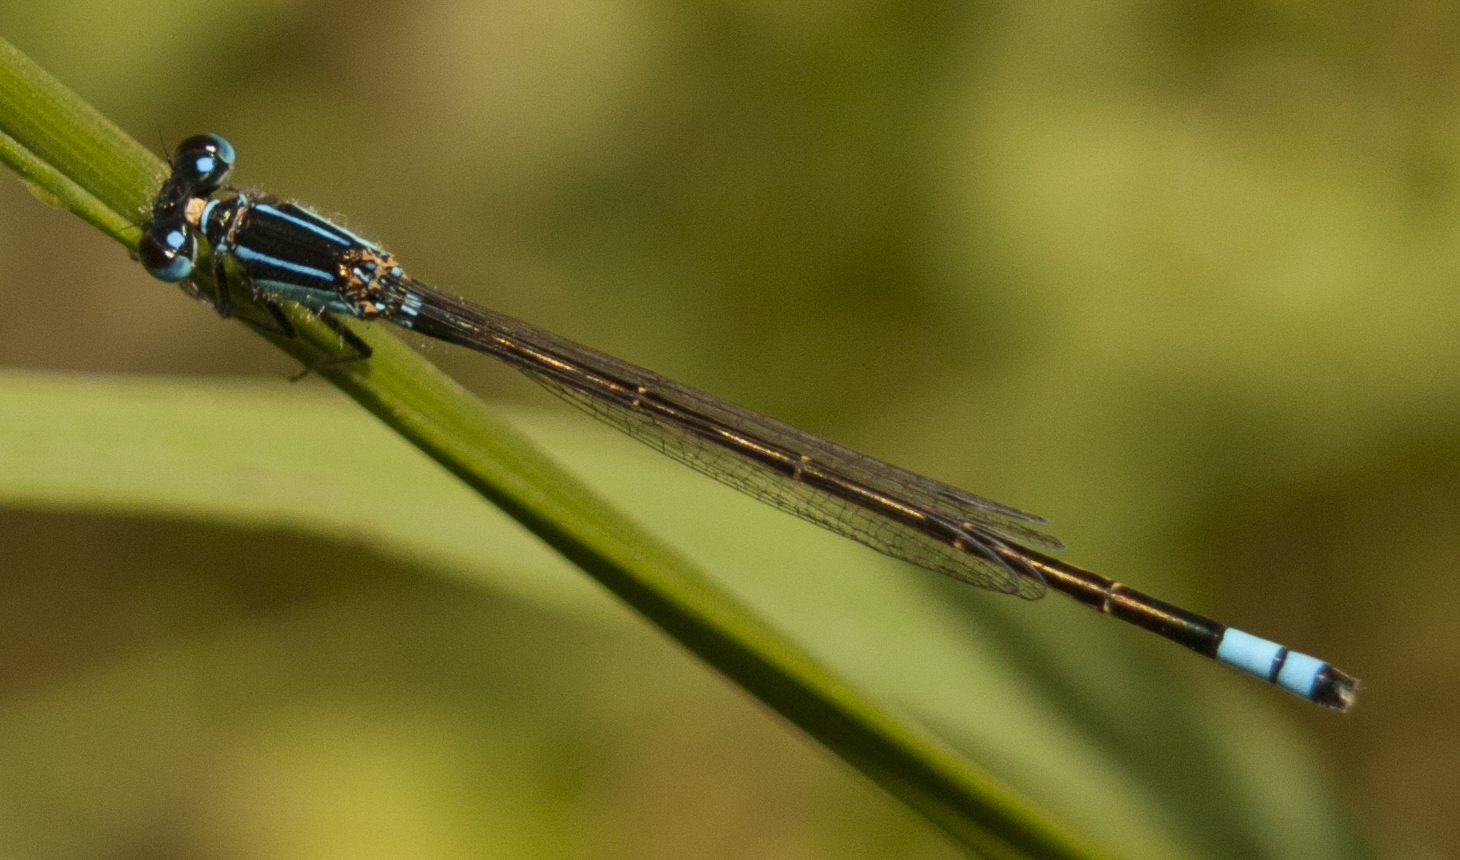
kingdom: Animalia
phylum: Arthropoda
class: Insecta
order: Odonata
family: Coenagrionidae
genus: Ischnura
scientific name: Ischnura heterosticta
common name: Common bluetail
